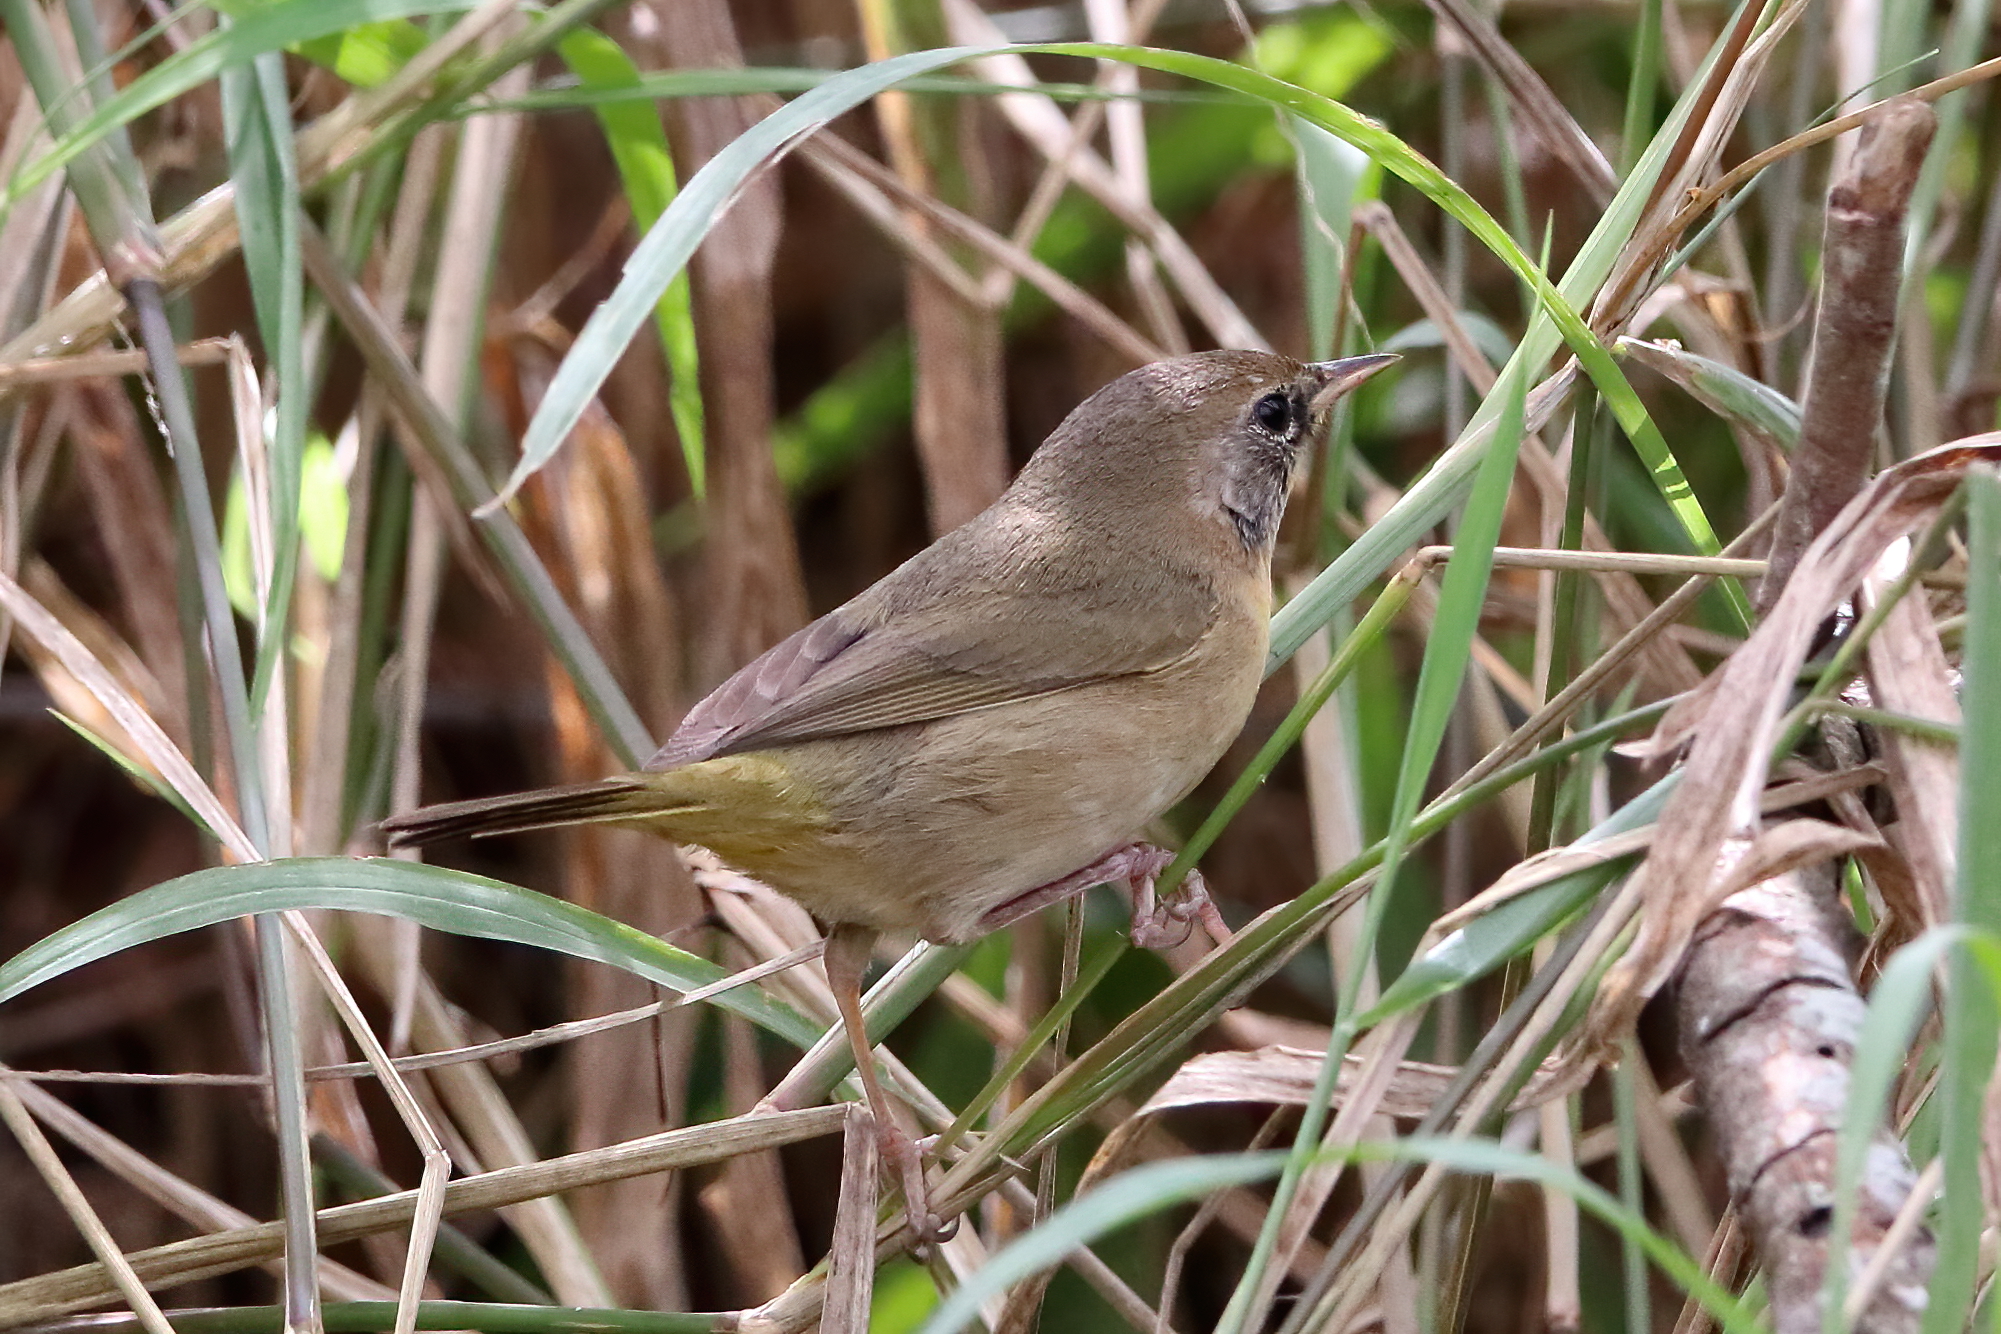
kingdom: Animalia
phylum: Chordata
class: Aves
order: Passeriformes
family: Parulidae
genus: Geothlypis
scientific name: Geothlypis trichas
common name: Common yellowthroat
